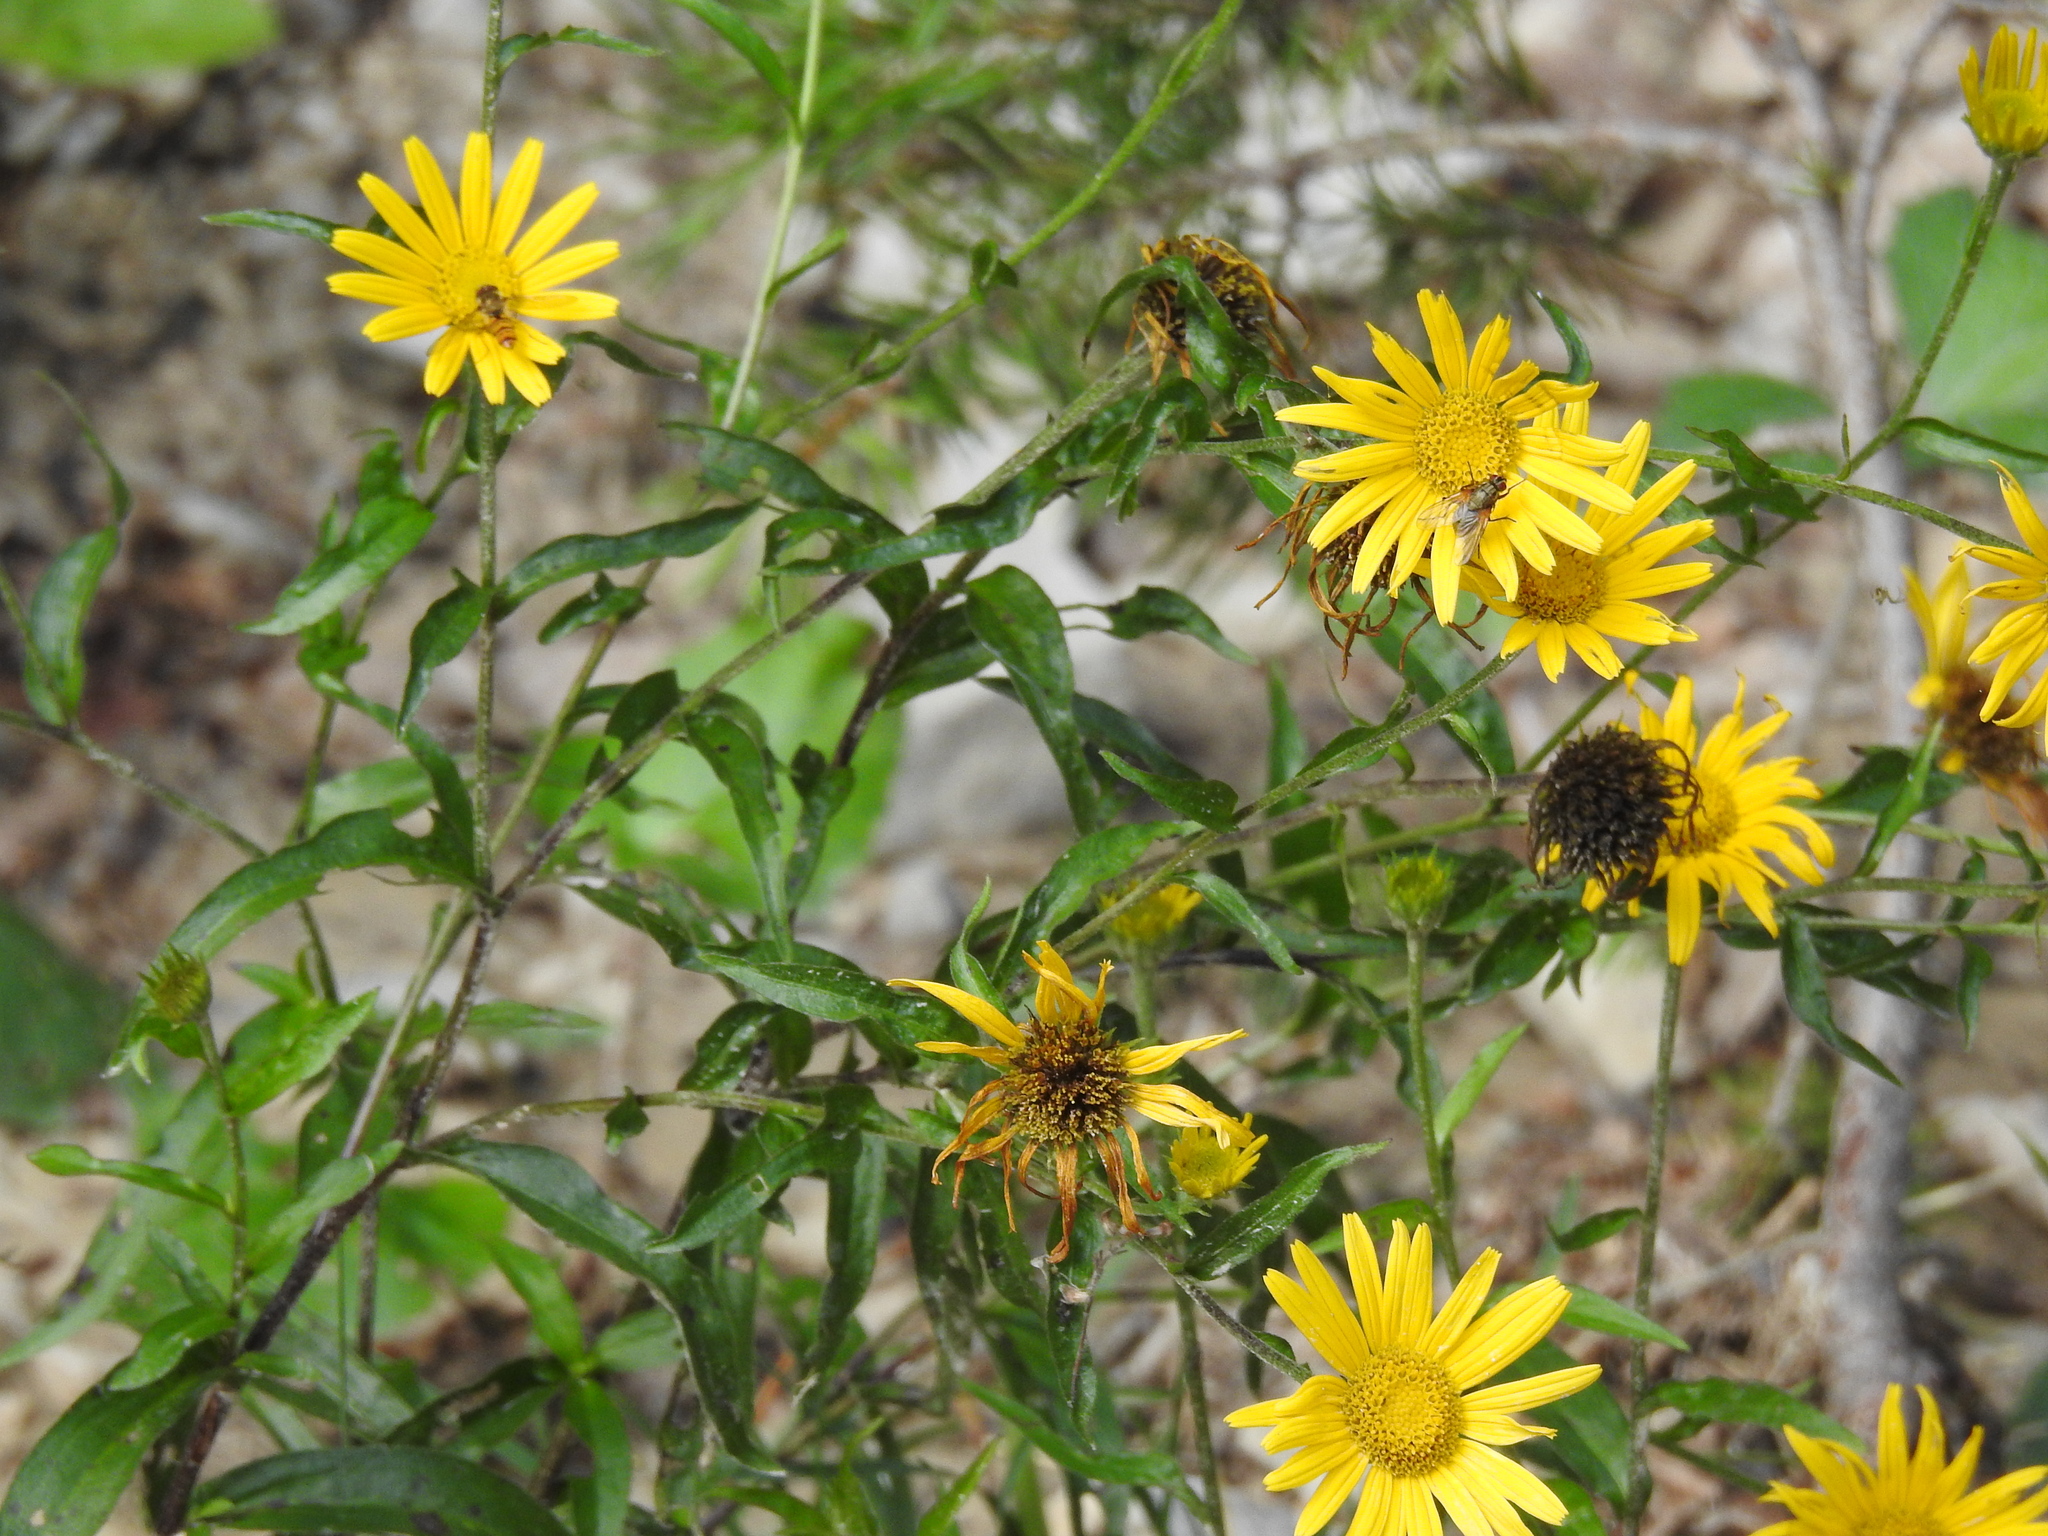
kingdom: Plantae
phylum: Tracheophyta
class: Magnoliopsida
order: Asterales
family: Asteraceae
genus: Buphthalmum
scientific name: Buphthalmum salicifolium
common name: Willow-leaved yellow-oxeye
